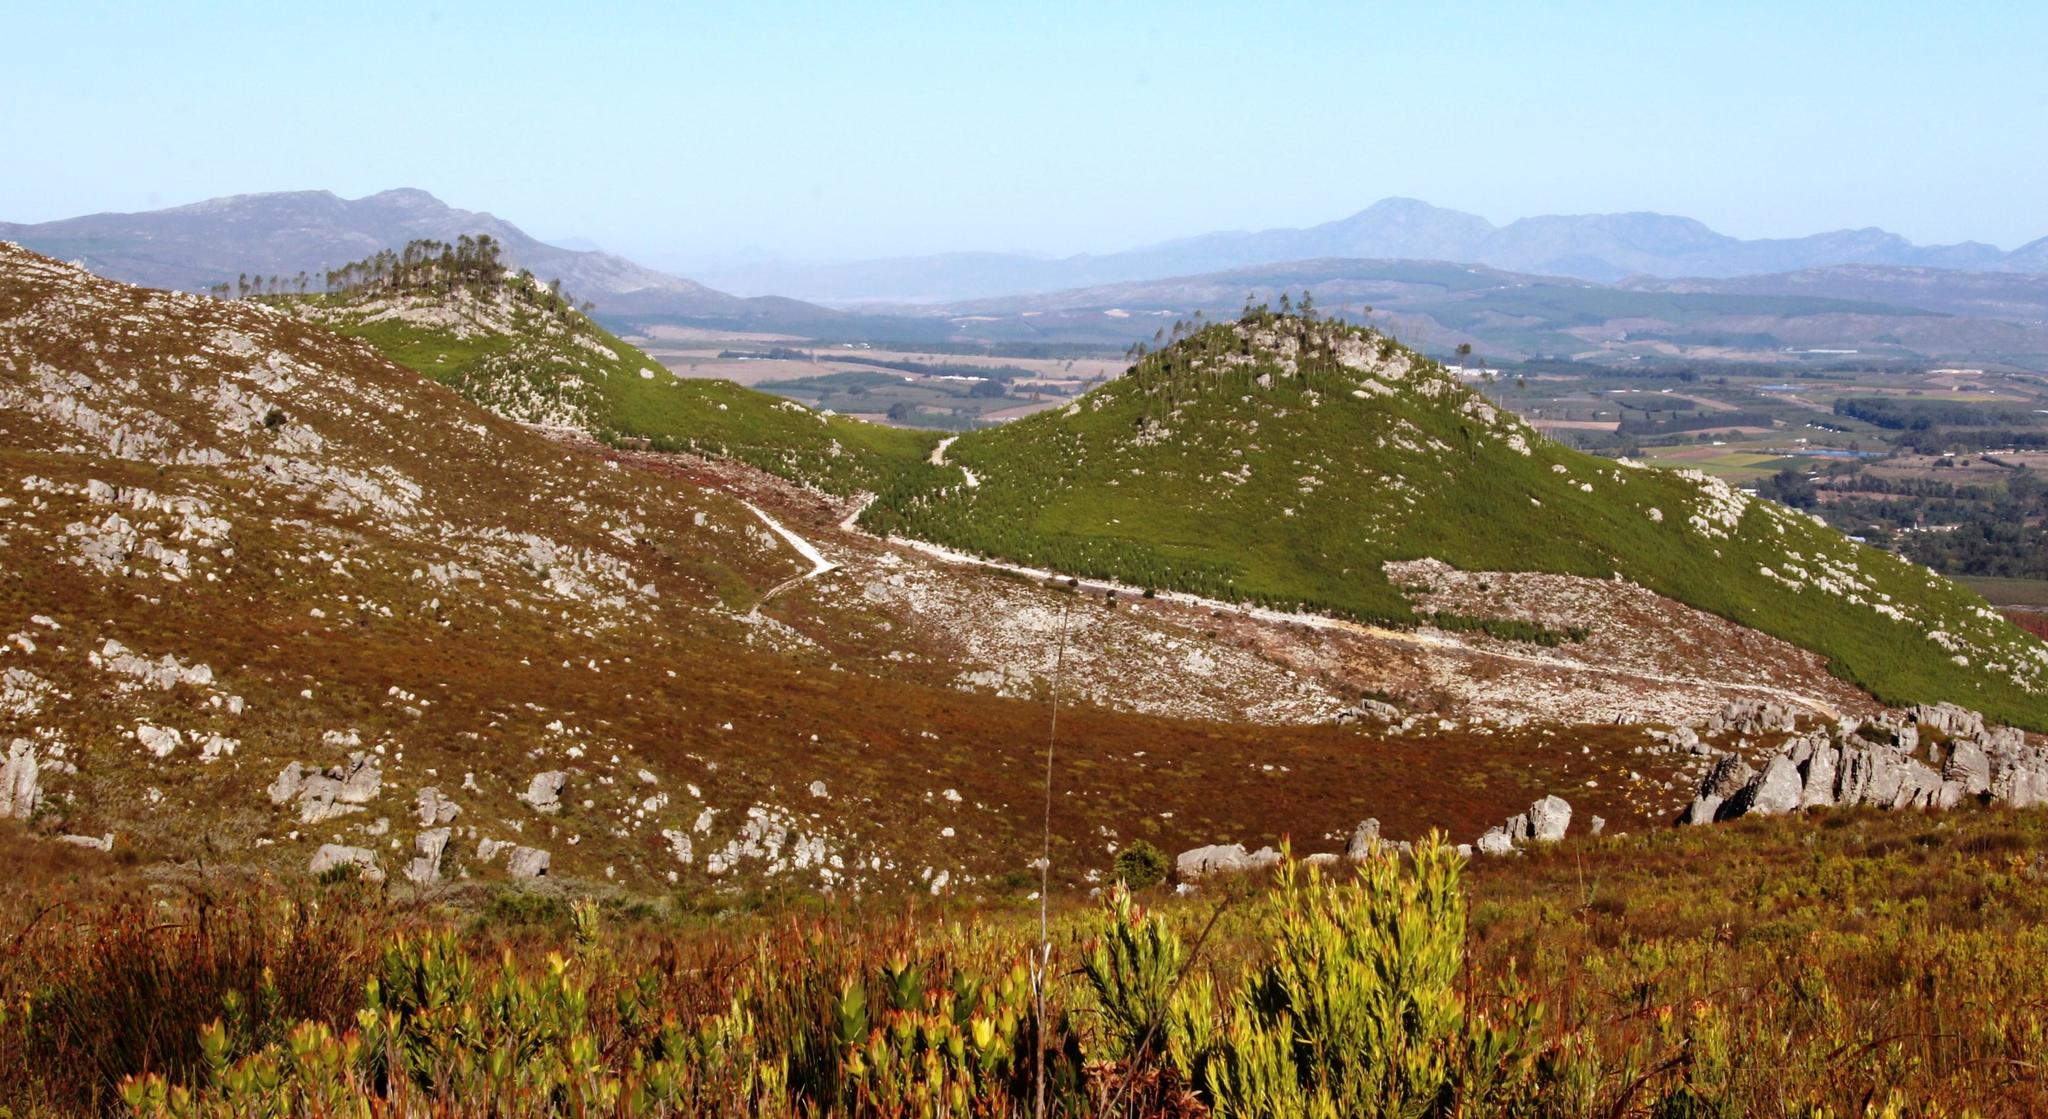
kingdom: Plantae
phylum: Tracheophyta
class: Pinopsida
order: Pinales
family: Pinaceae
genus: Pinus
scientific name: Pinus radiata
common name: Monterey pine
